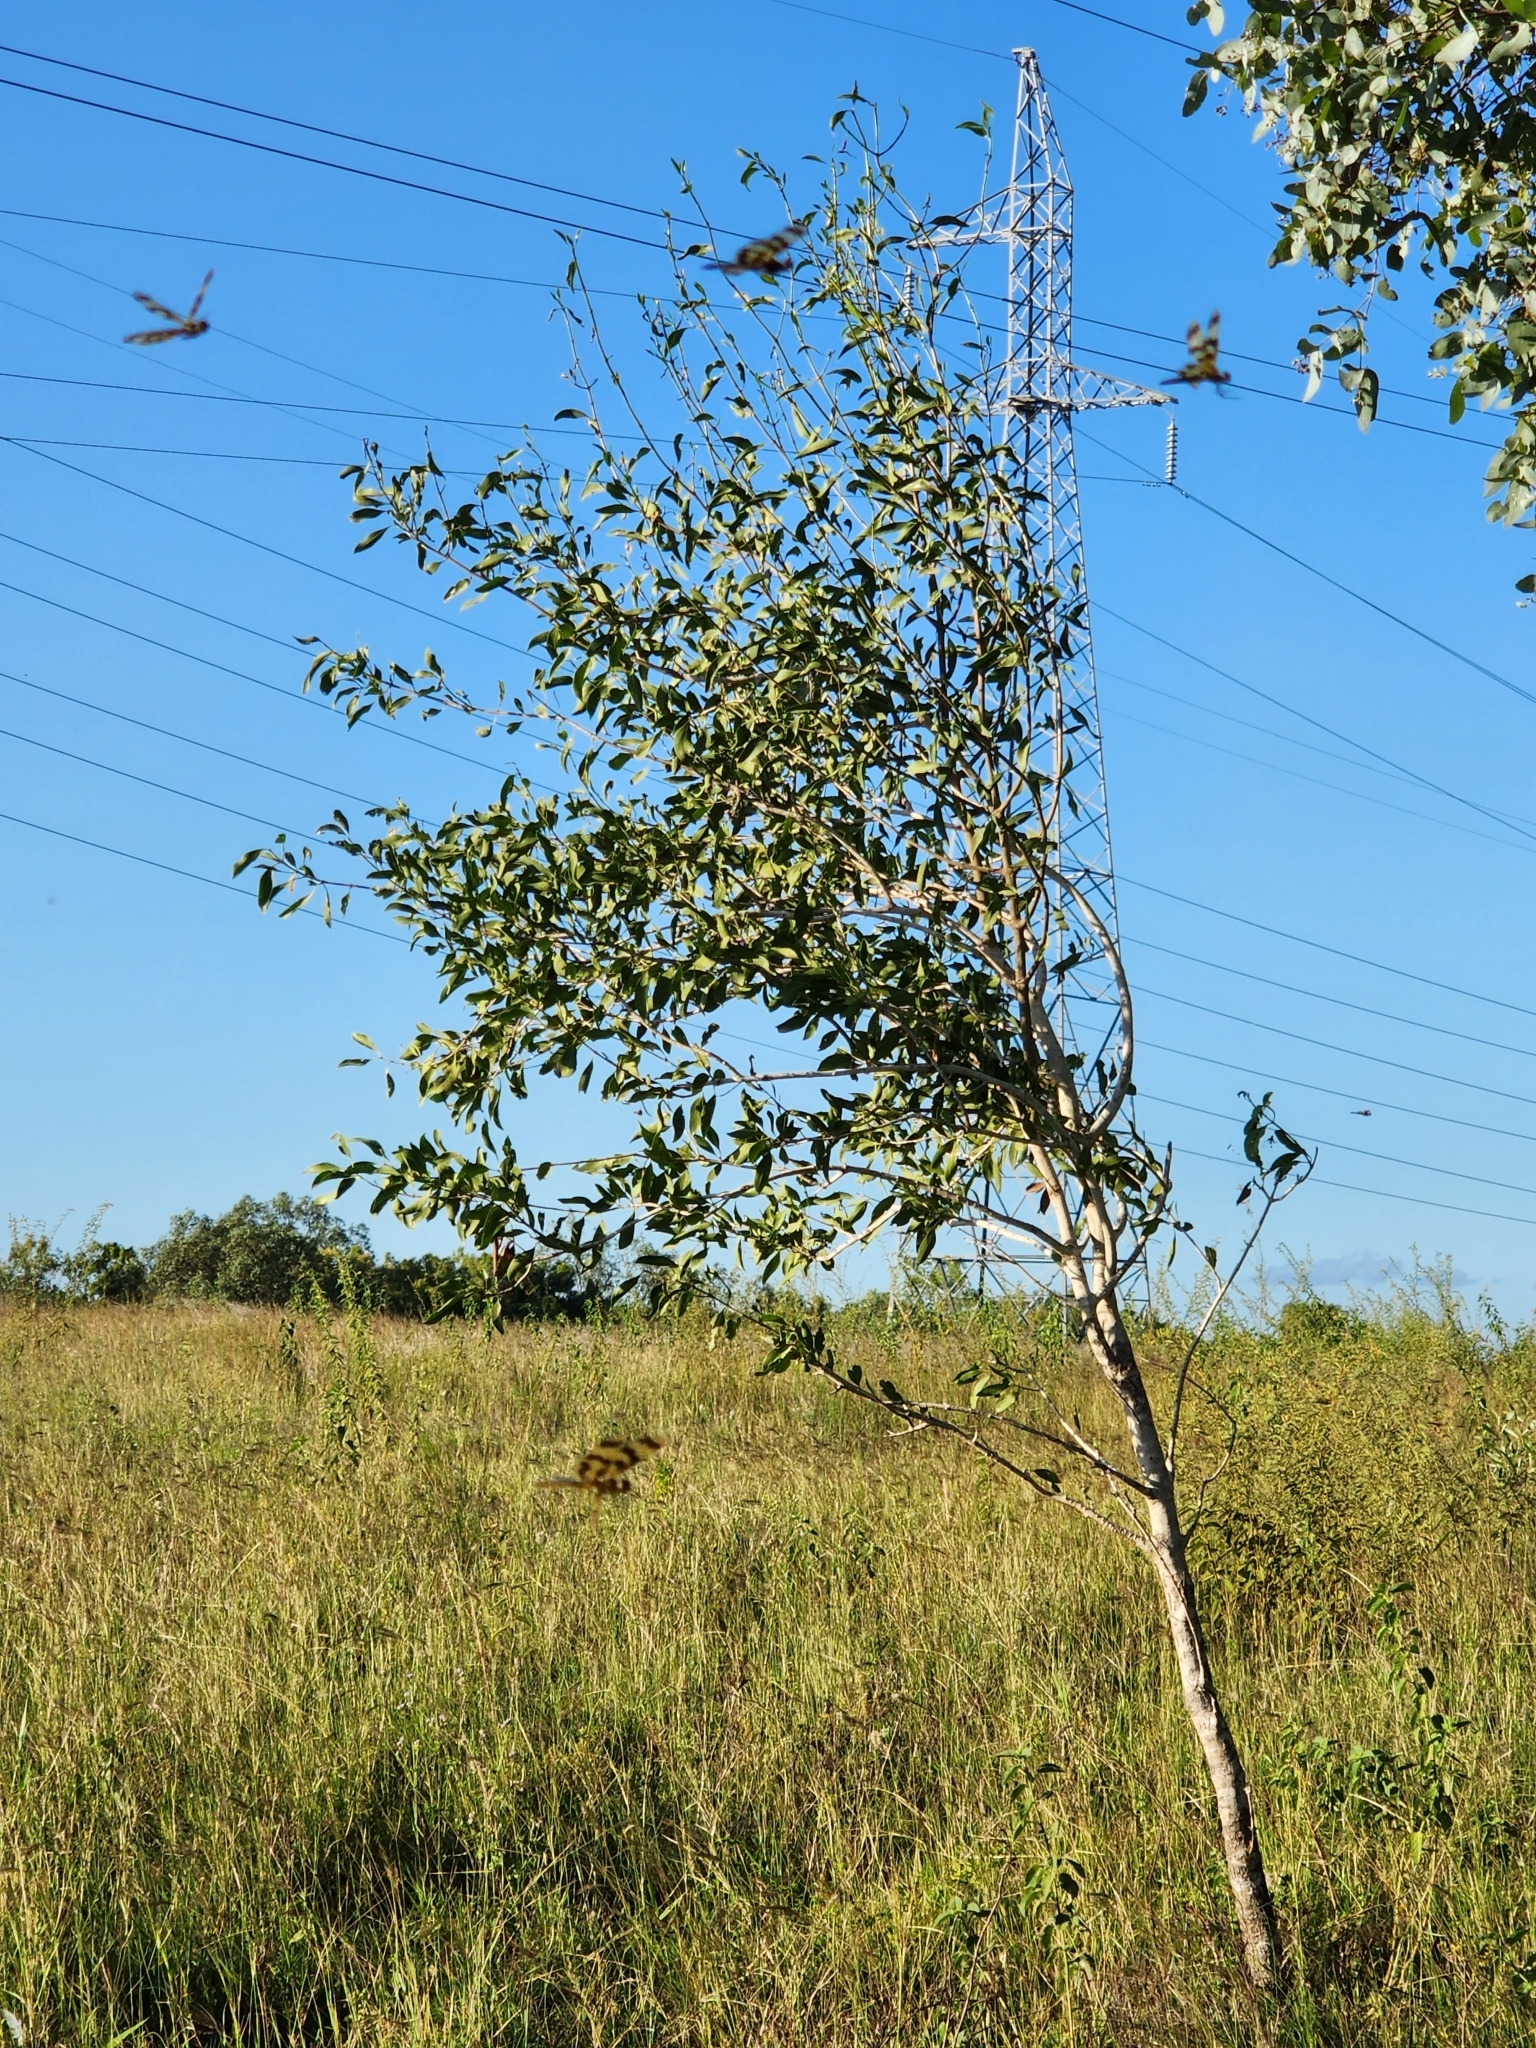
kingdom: Animalia
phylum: Arthropoda
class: Insecta
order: Odonata
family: Libellulidae
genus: Rhyothemis
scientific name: Rhyothemis graphiptera
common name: Graphic flutterer
